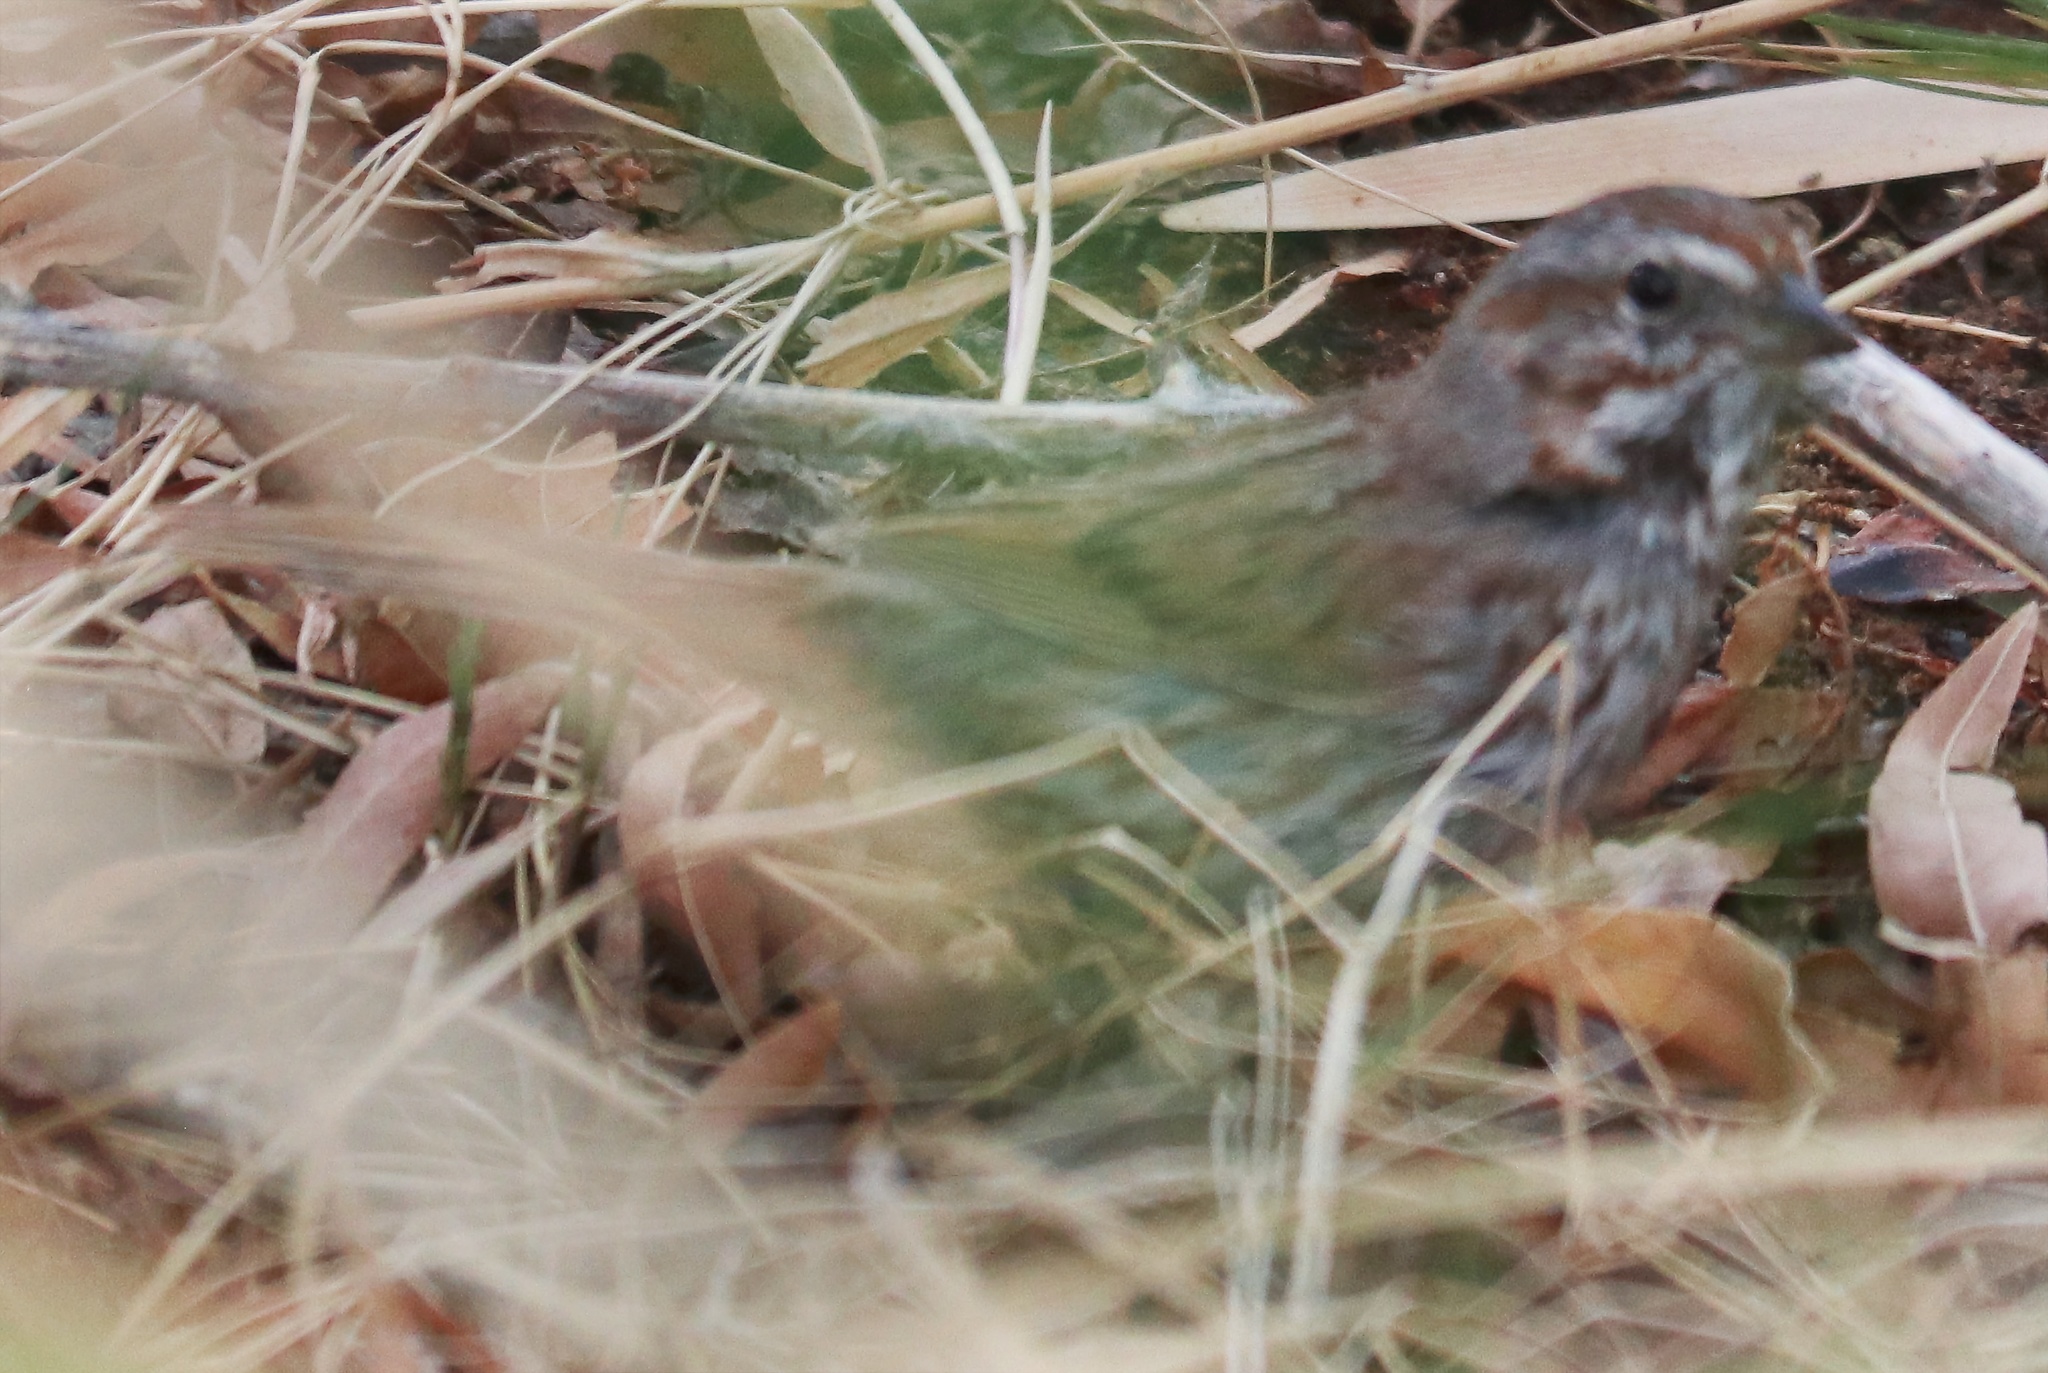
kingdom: Animalia
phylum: Chordata
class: Aves
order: Passeriformes
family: Passerellidae
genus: Melospiza
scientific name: Melospiza melodia
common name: Song sparrow
